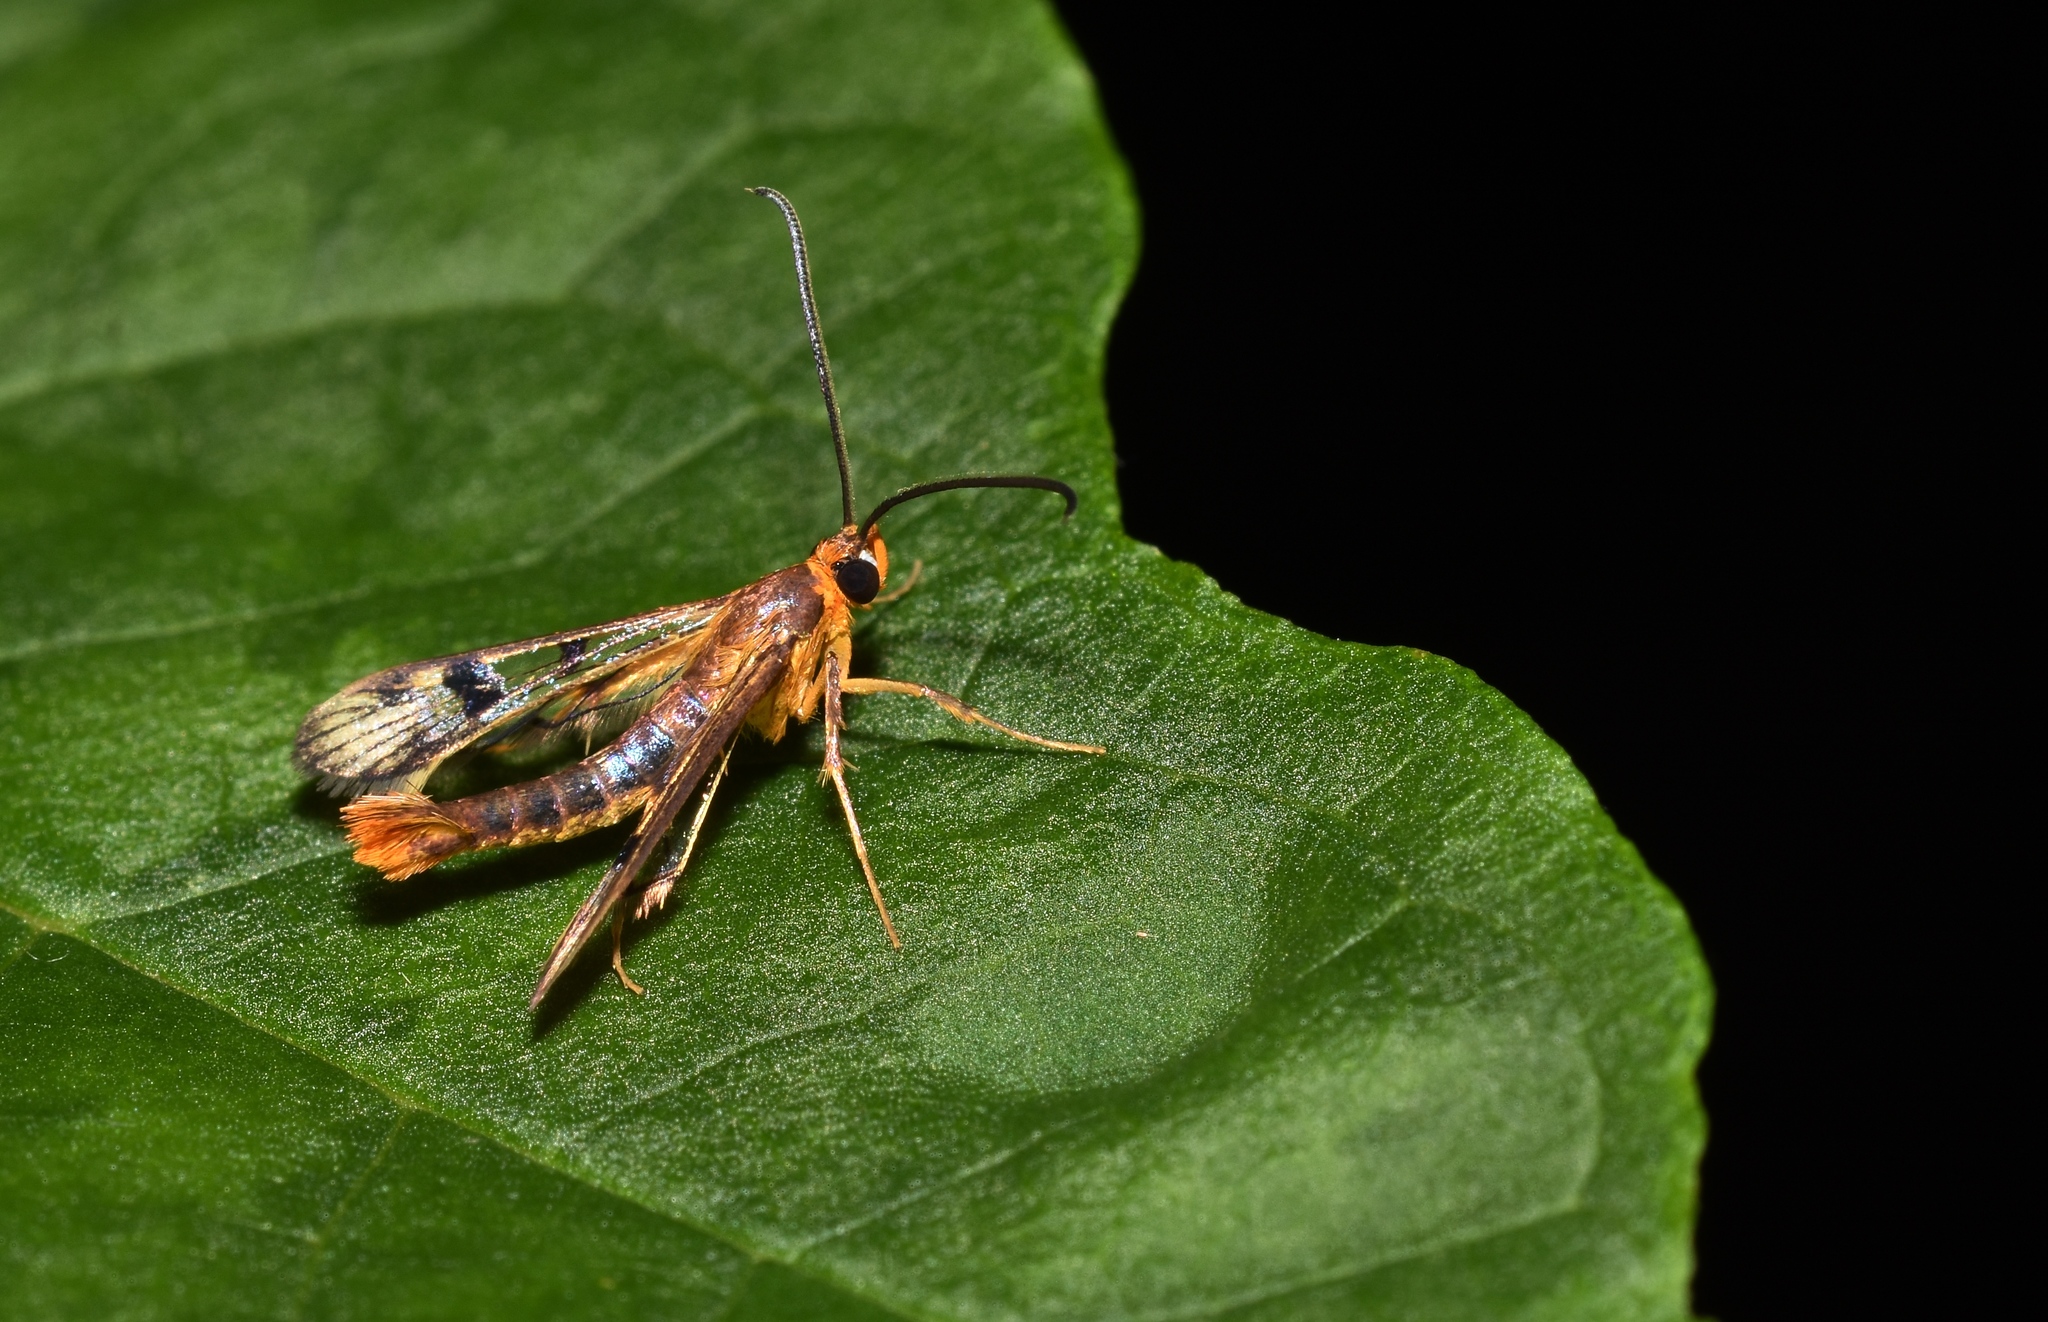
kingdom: Animalia
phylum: Arthropoda
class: Insecta
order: Lepidoptera
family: Sesiidae
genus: Synanthedon
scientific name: Synanthedon acerni
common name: Maple callus borer moth
